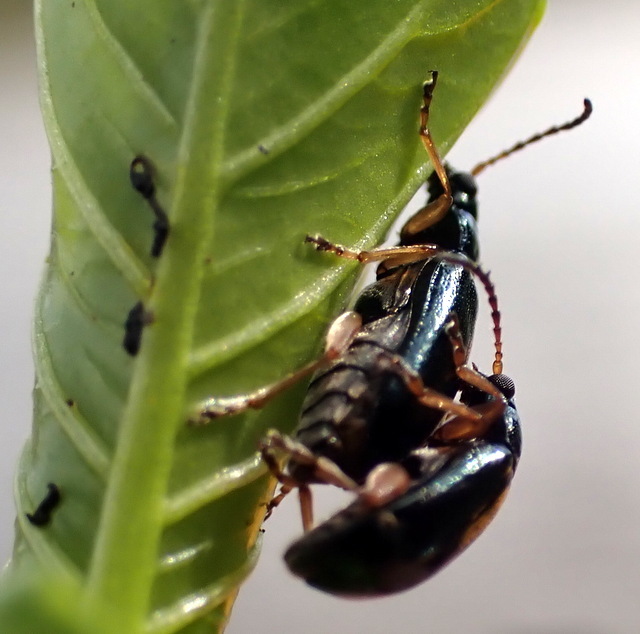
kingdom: Animalia
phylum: Arthropoda
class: Insecta
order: Coleoptera
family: Chrysomelidae
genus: Lysathia
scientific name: Lysathia ludoviciana
